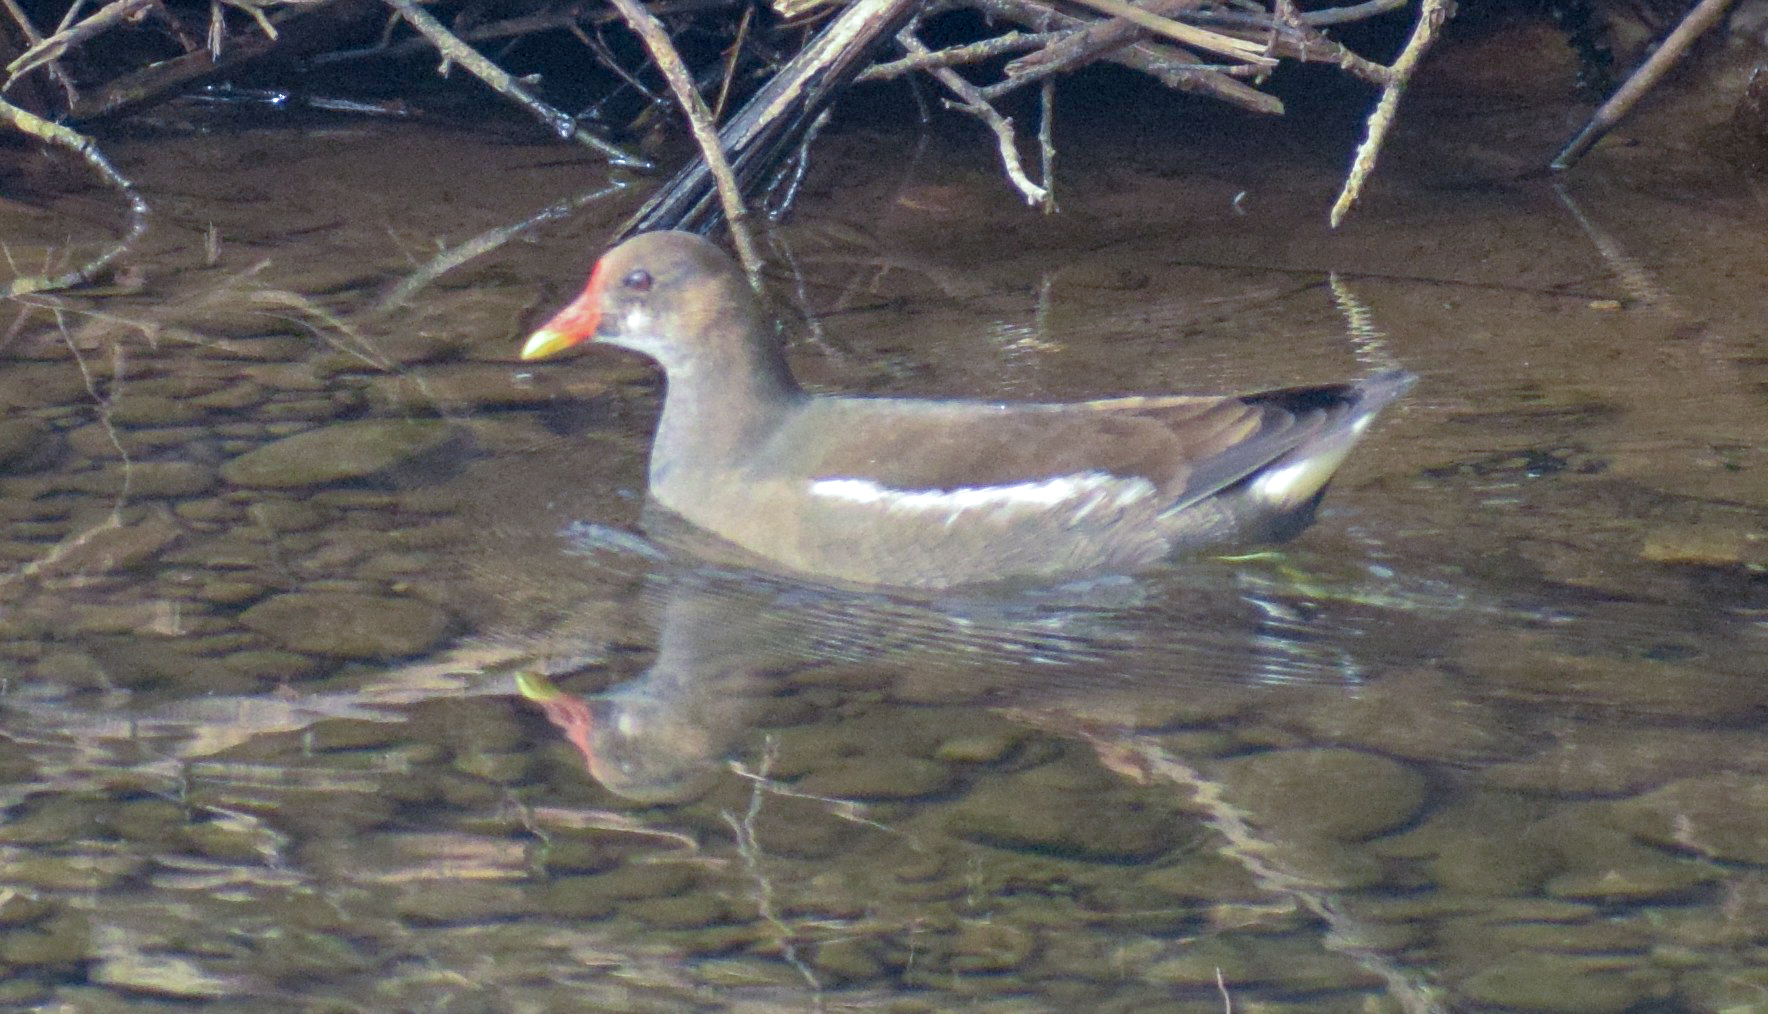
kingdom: Animalia
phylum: Chordata
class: Aves
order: Gruiformes
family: Rallidae
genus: Gallinula
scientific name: Gallinula chloropus
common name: Common moorhen
